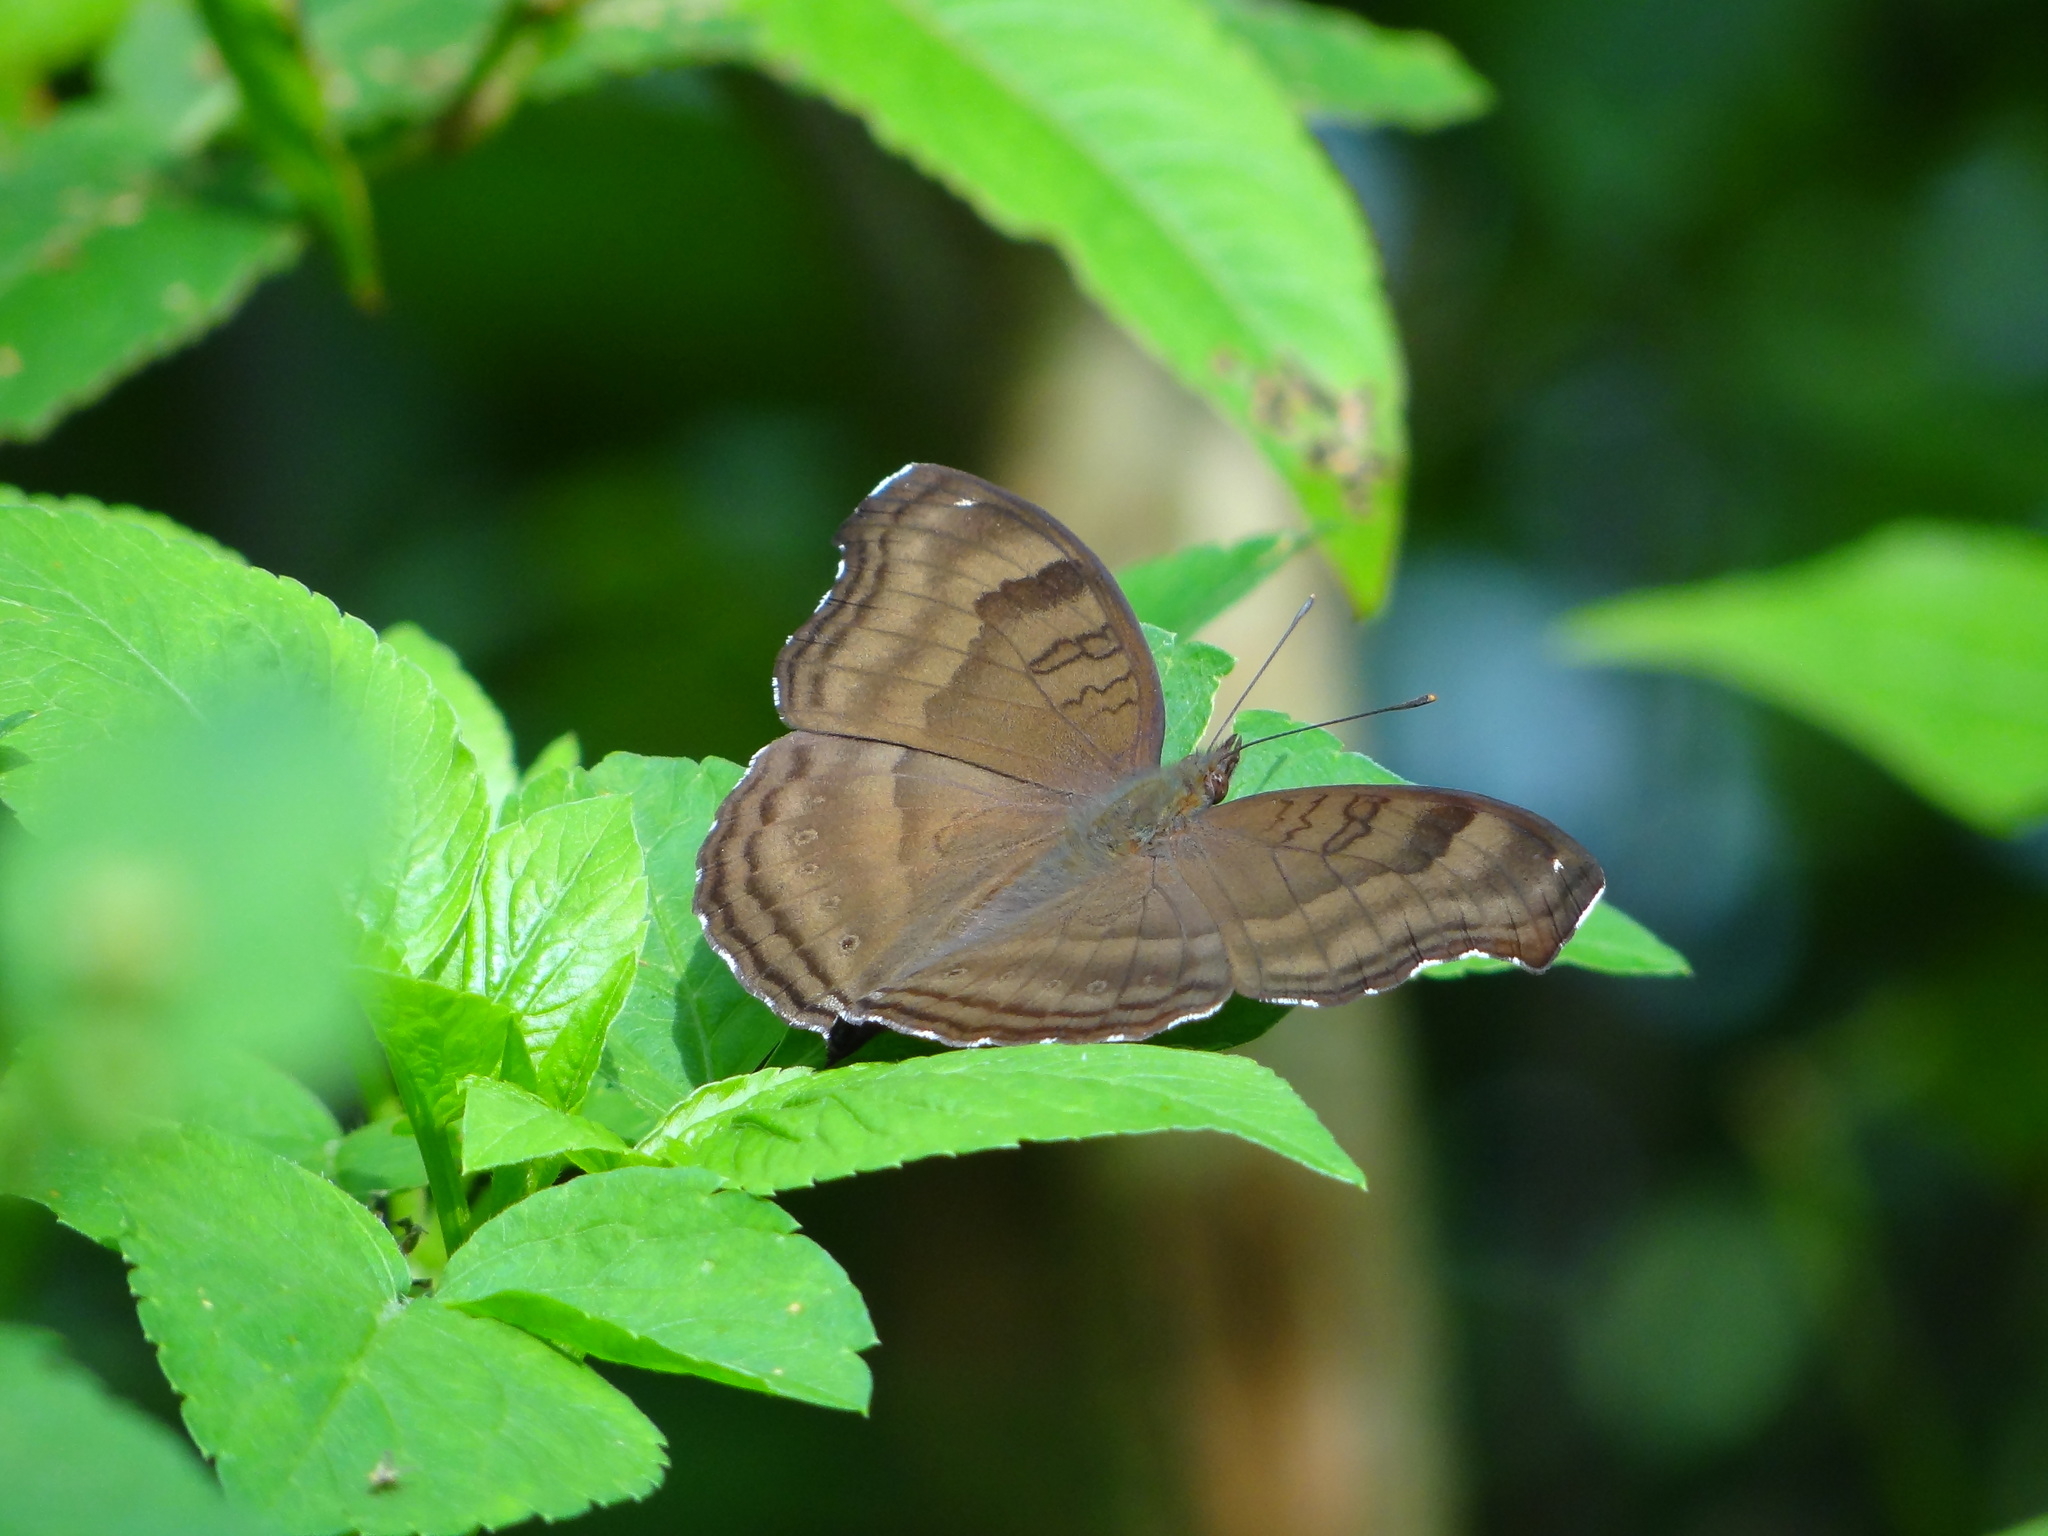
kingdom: Animalia
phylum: Arthropoda
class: Insecta
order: Lepidoptera
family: Nymphalidae
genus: Junonia
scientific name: Junonia iphita
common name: Chocolate pansy
